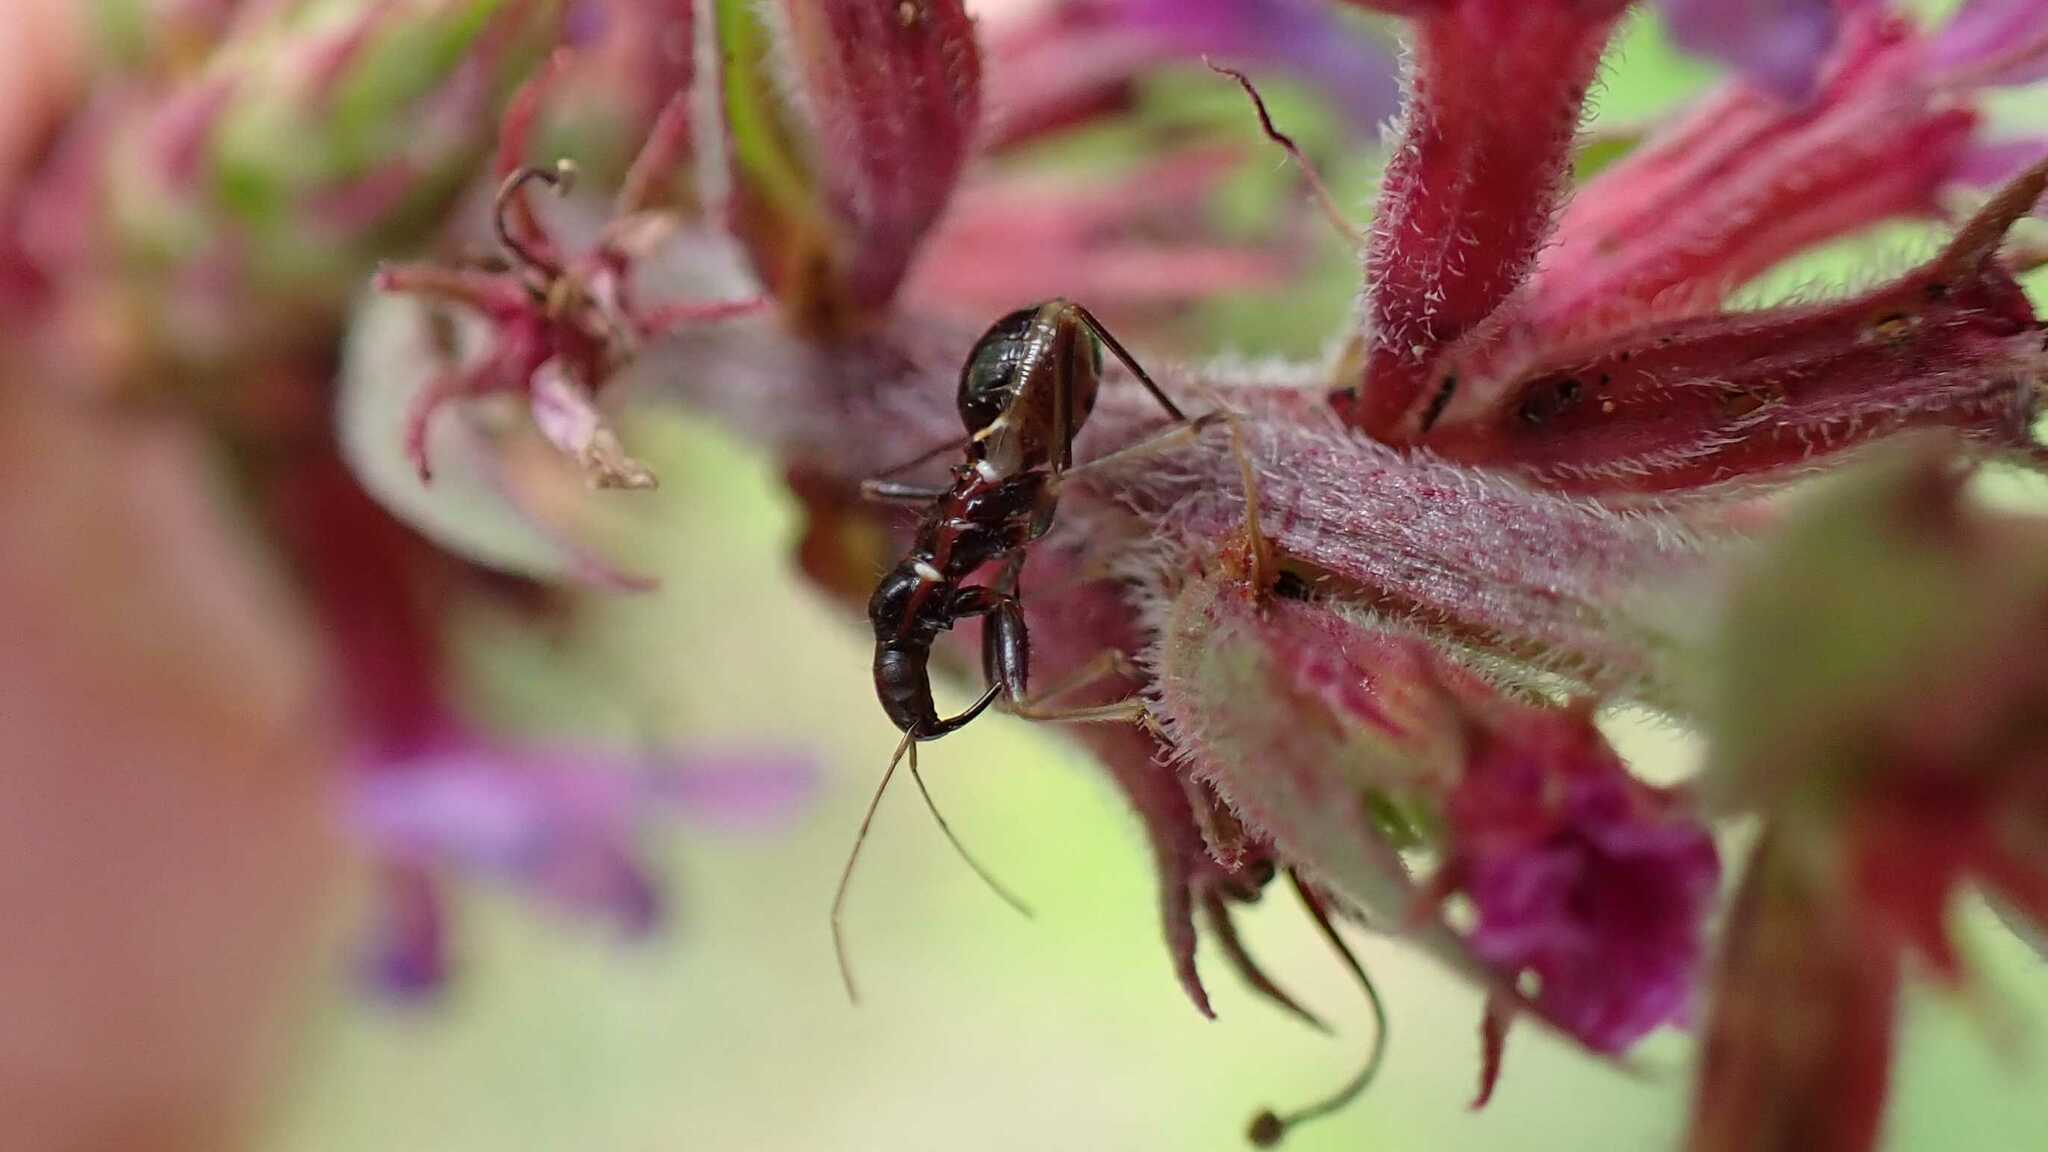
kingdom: Animalia
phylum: Arthropoda
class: Insecta
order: Hemiptera
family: Nabidae
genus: Himacerus
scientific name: Himacerus mirmicoides
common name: Ant damsel bug
